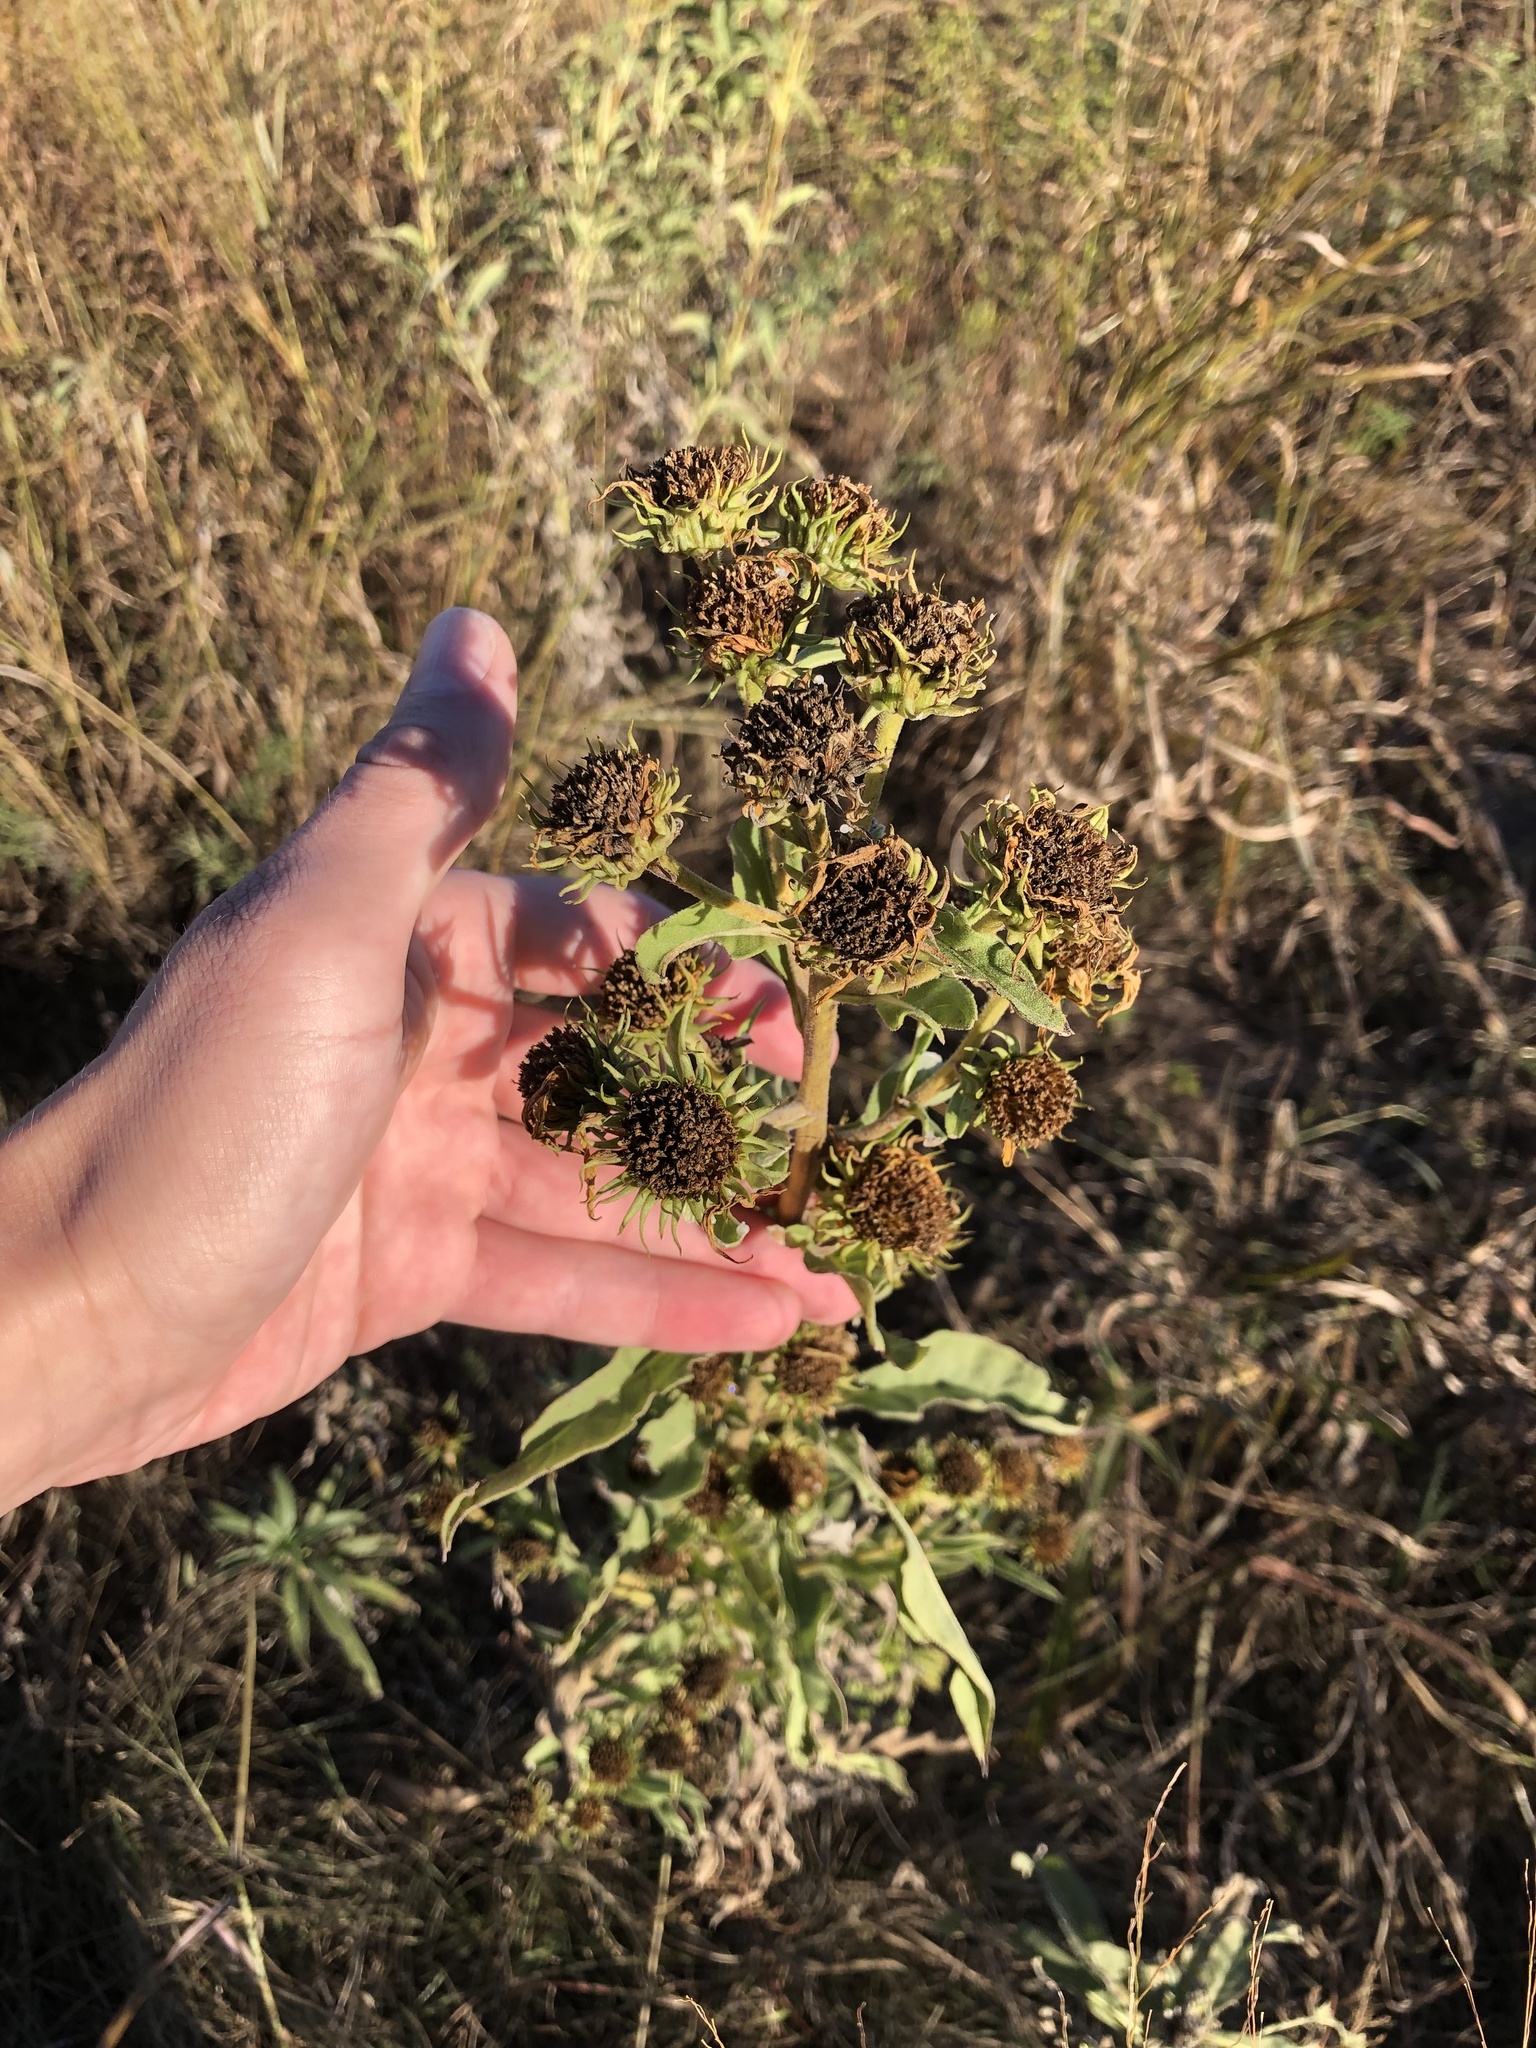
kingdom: Plantae
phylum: Tracheophyta
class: Magnoliopsida
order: Asterales
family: Asteraceae
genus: Helianthus
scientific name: Helianthus maximiliani
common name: Maximilian's sunflower
